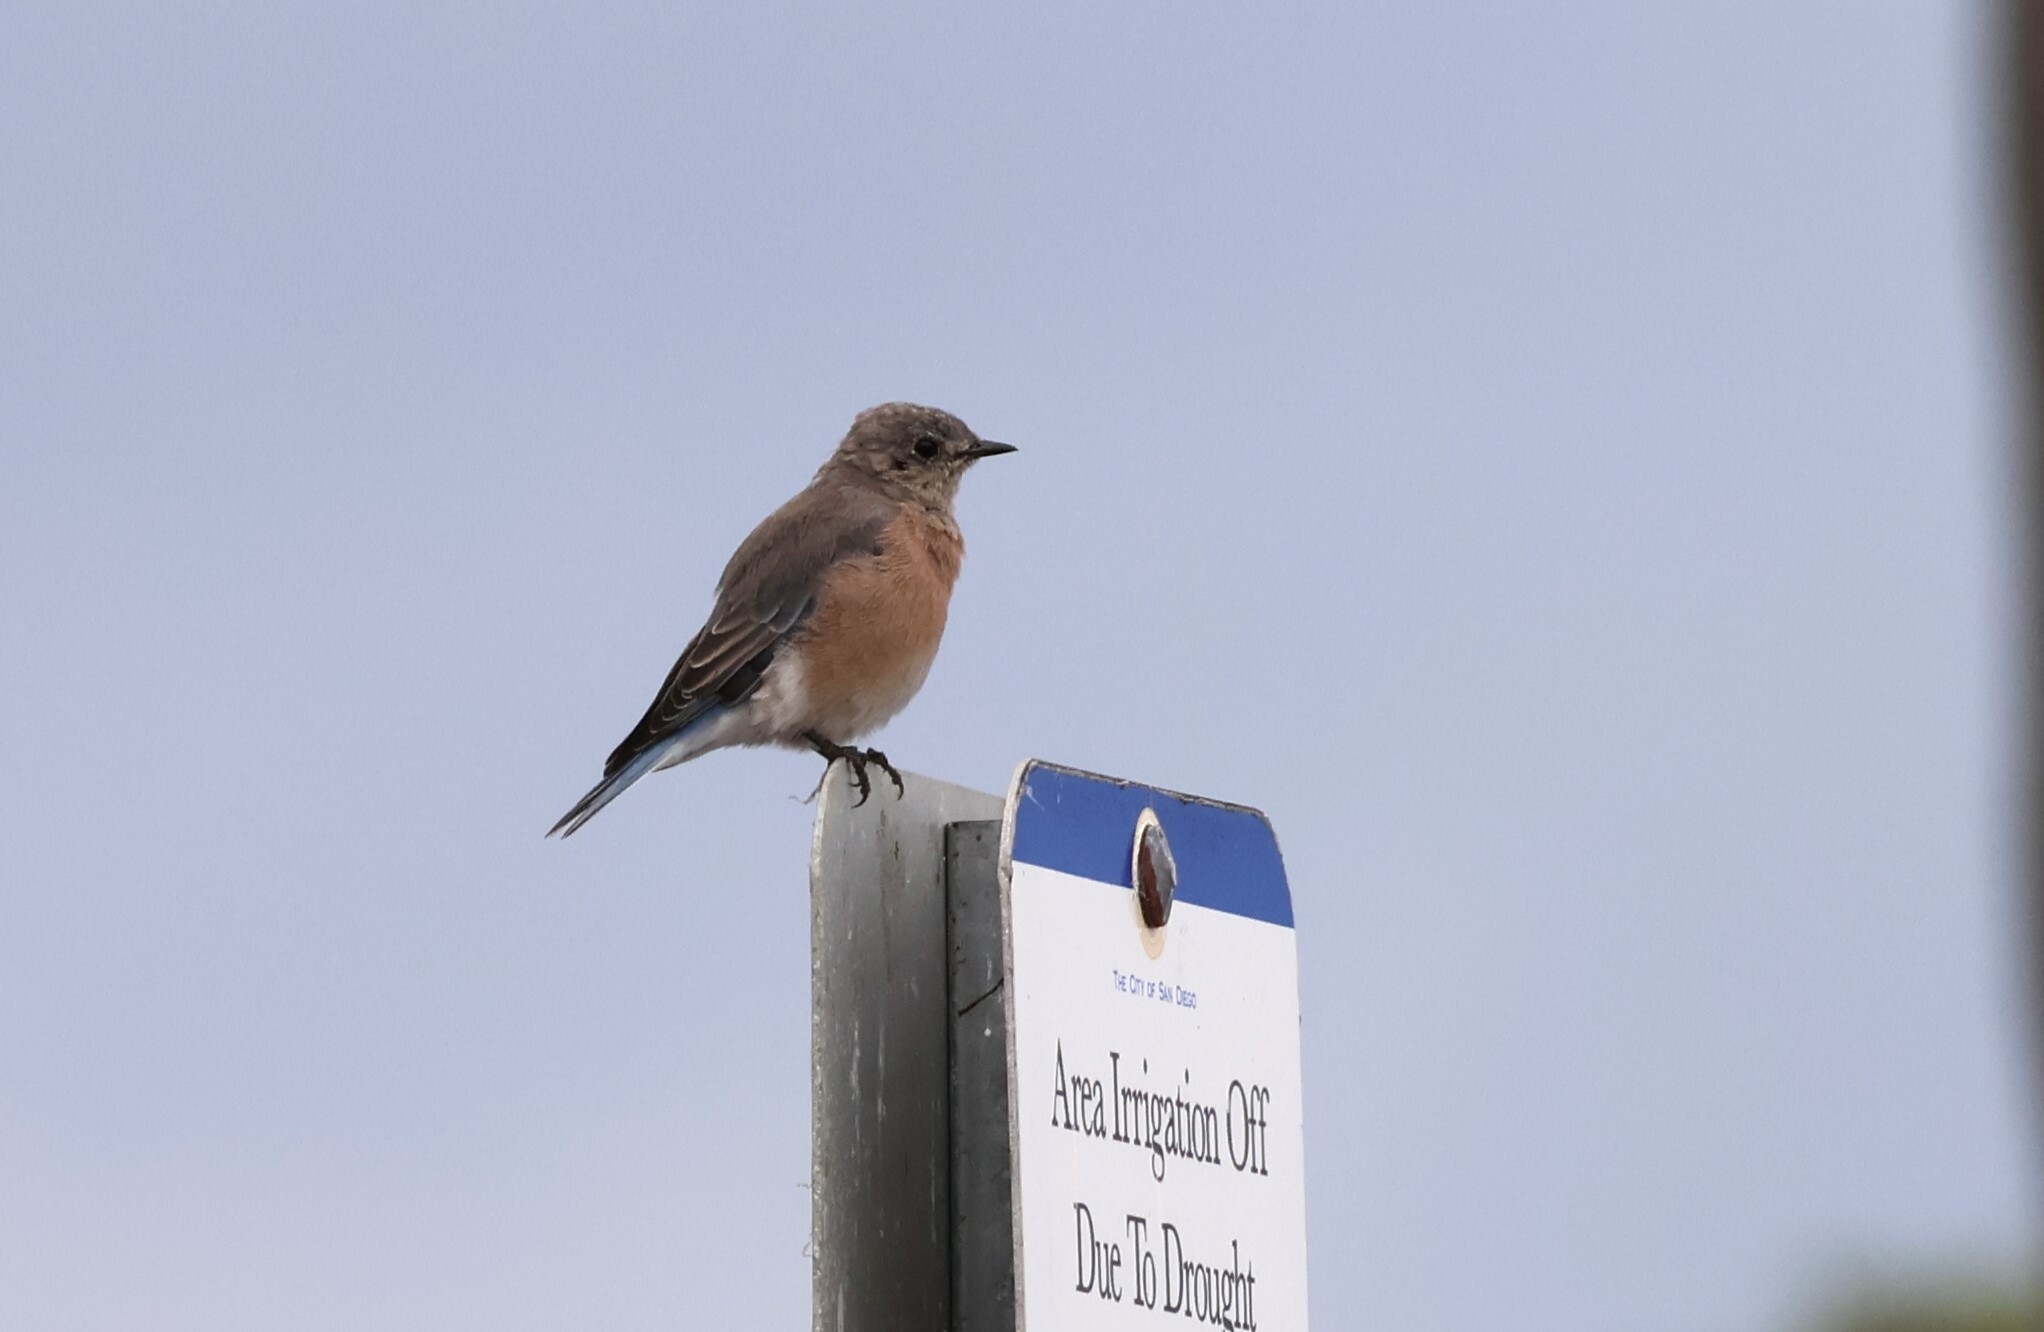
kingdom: Animalia
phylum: Chordata
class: Aves
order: Passeriformes
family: Turdidae
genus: Sialia
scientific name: Sialia mexicana
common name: Western bluebird
